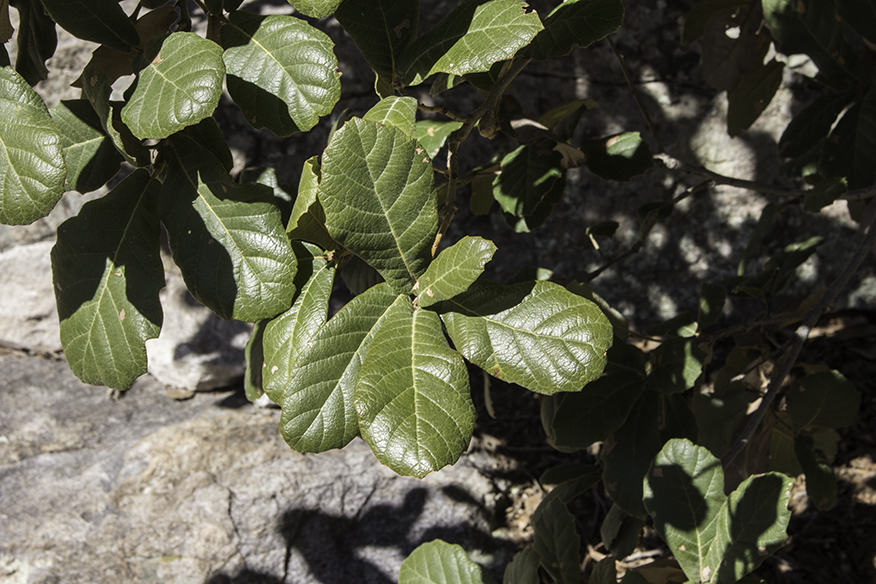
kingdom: Plantae
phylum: Tracheophyta
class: Magnoliopsida
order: Fagales
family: Fagaceae
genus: Quercus
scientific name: Quercus rugosa
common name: Netleaf oak
